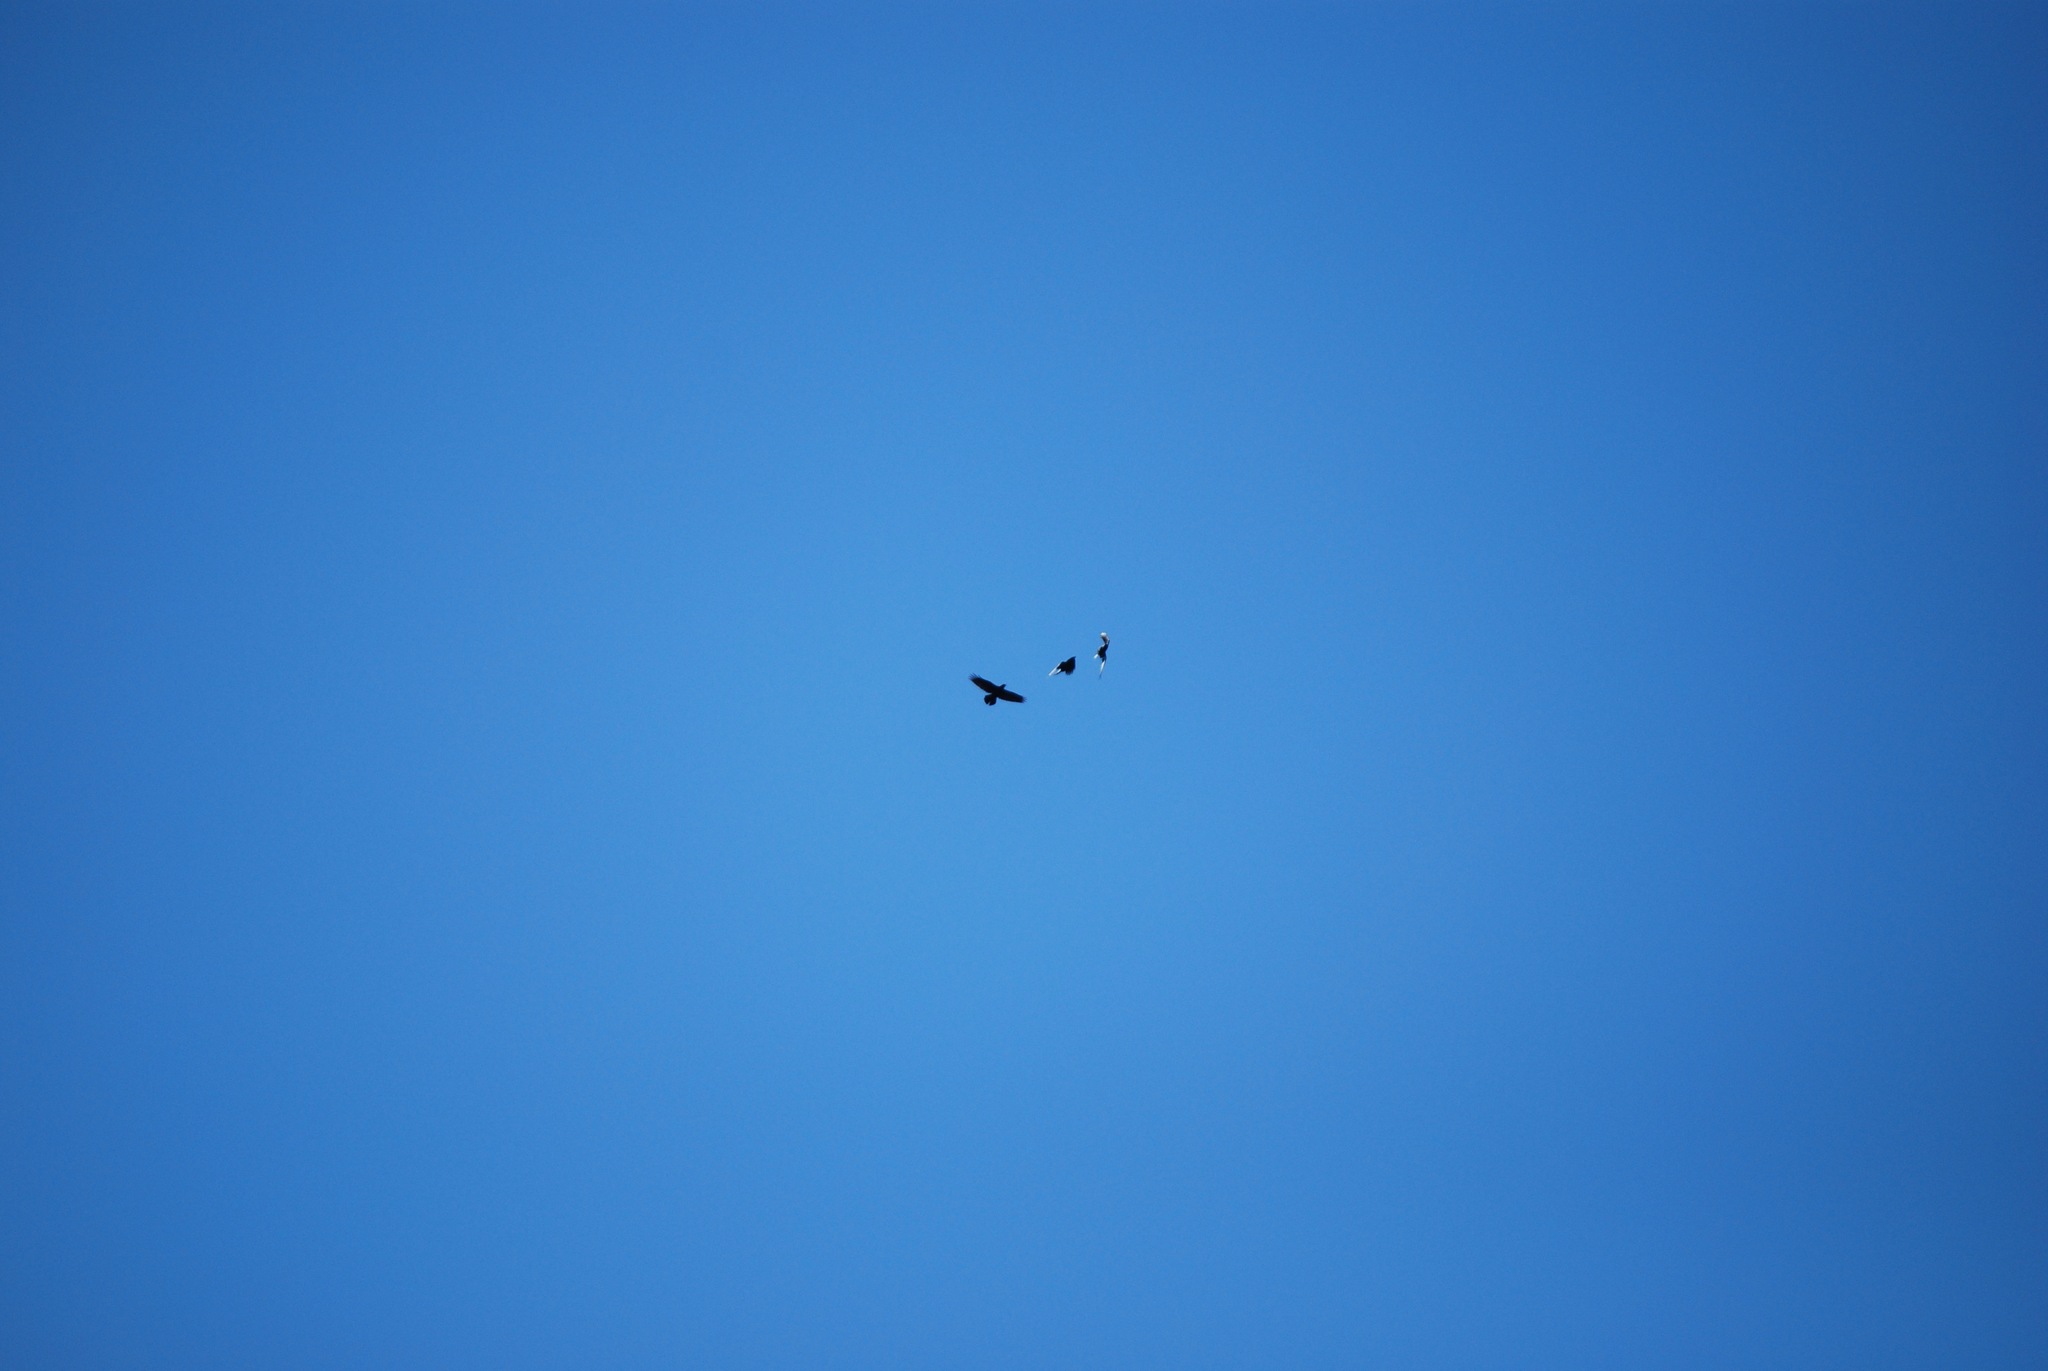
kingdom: Animalia
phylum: Chordata
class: Aves
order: Passeriformes
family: Corvidae
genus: Corvus
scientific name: Corvus corax
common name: Common raven
